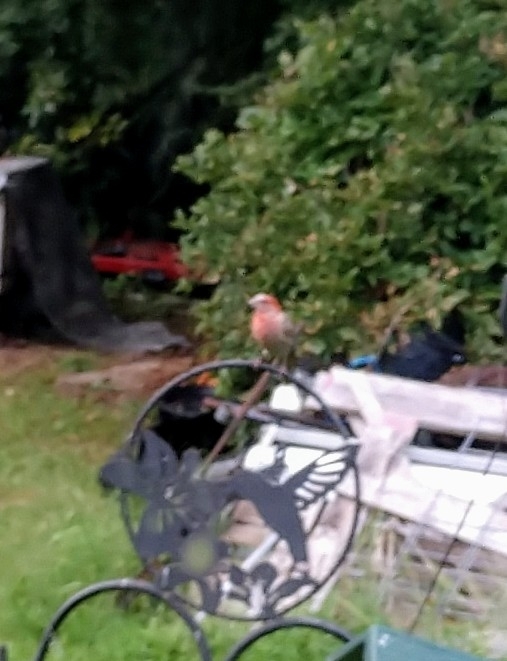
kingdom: Animalia
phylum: Chordata
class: Aves
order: Passeriformes
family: Fringillidae
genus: Haemorhous
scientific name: Haemorhous mexicanus
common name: House finch
